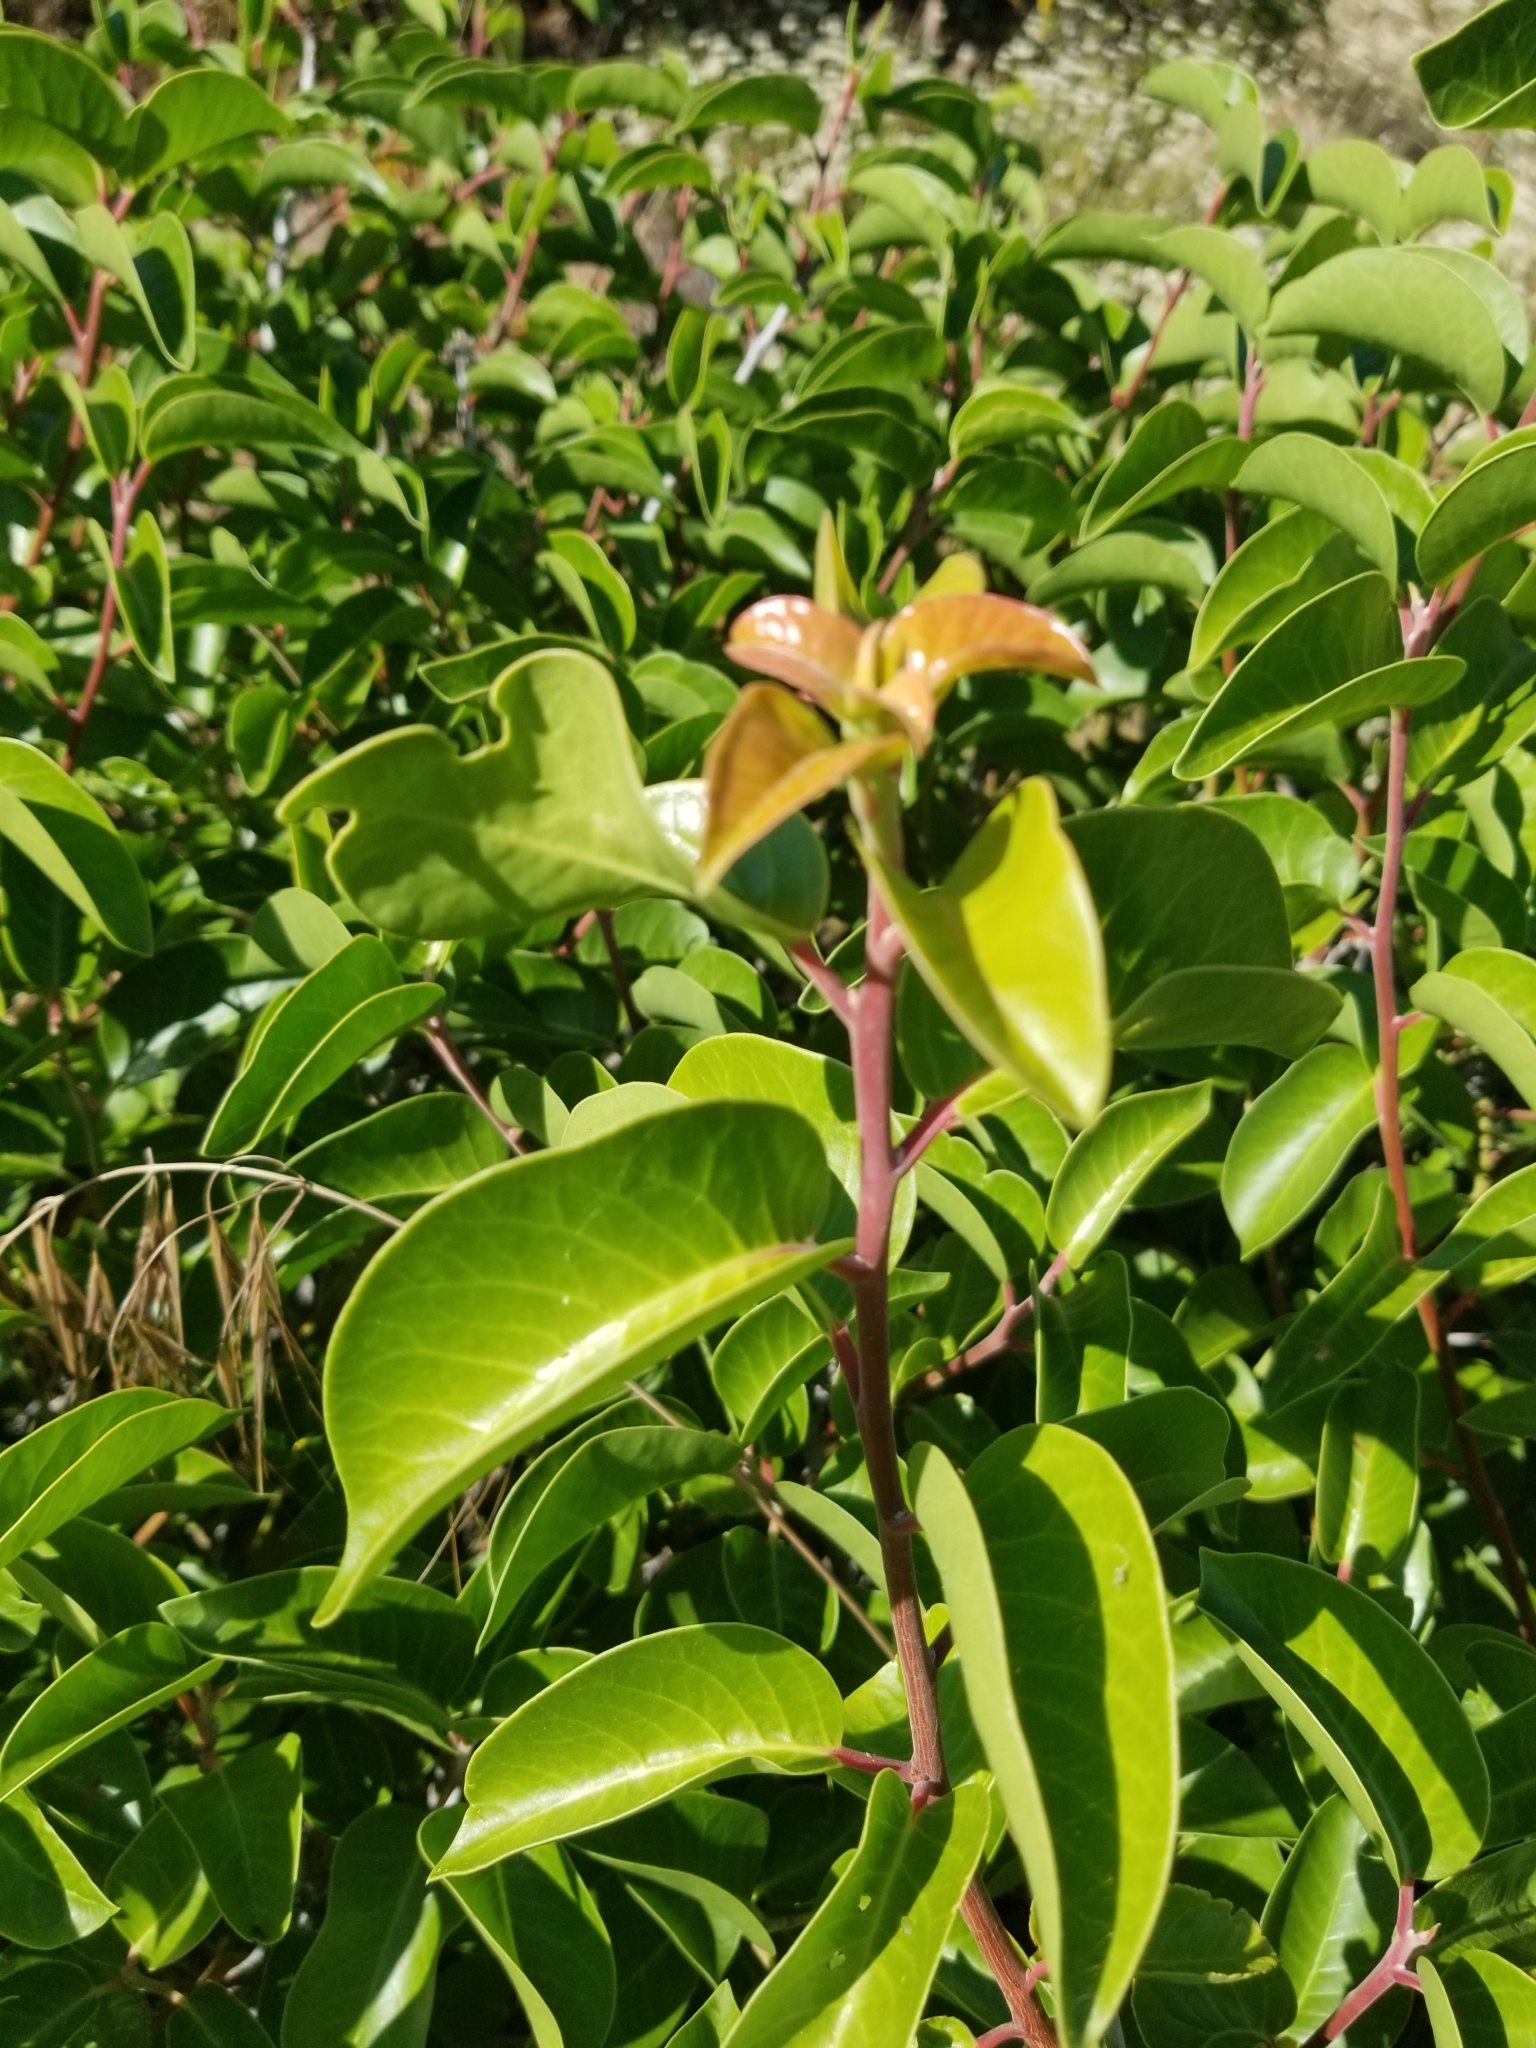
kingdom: Plantae
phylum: Tracheophyta
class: Magnoliopsida
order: Sapindales
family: Anacardiaceae
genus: Rhus
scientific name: Rhus ovata
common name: Sugar sumac
